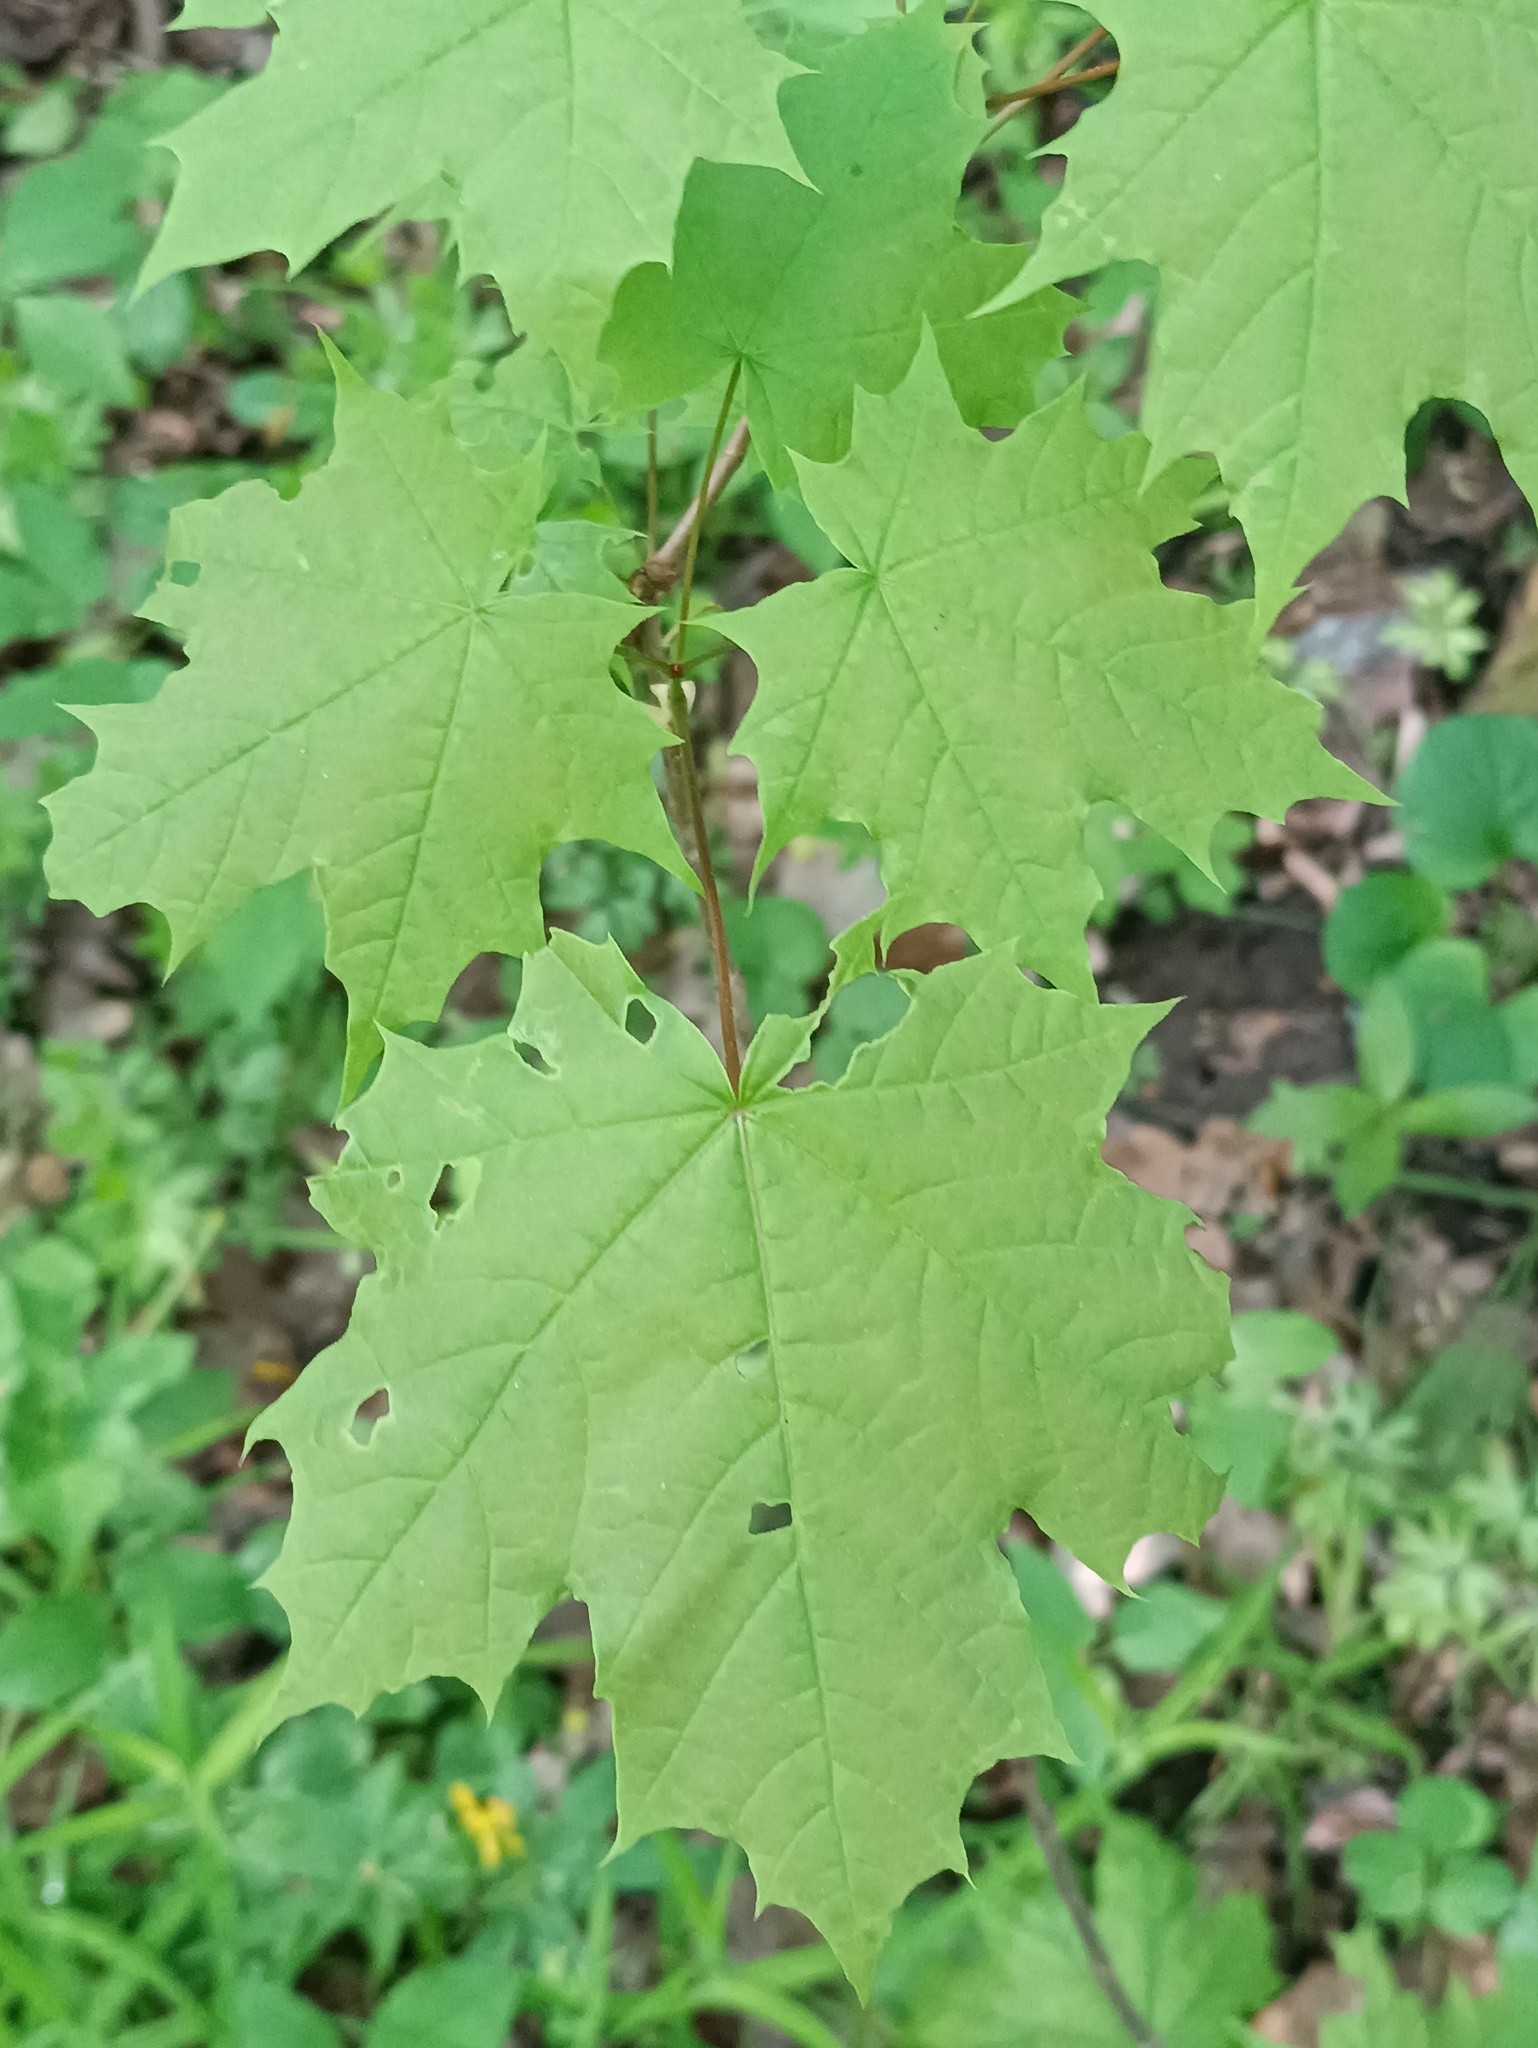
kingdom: Plantae
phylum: Tracheophyta
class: Magnoliopsida
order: Sapindales
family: Sapindaceae
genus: Acer
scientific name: Acer platanoides
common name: Norway maple
